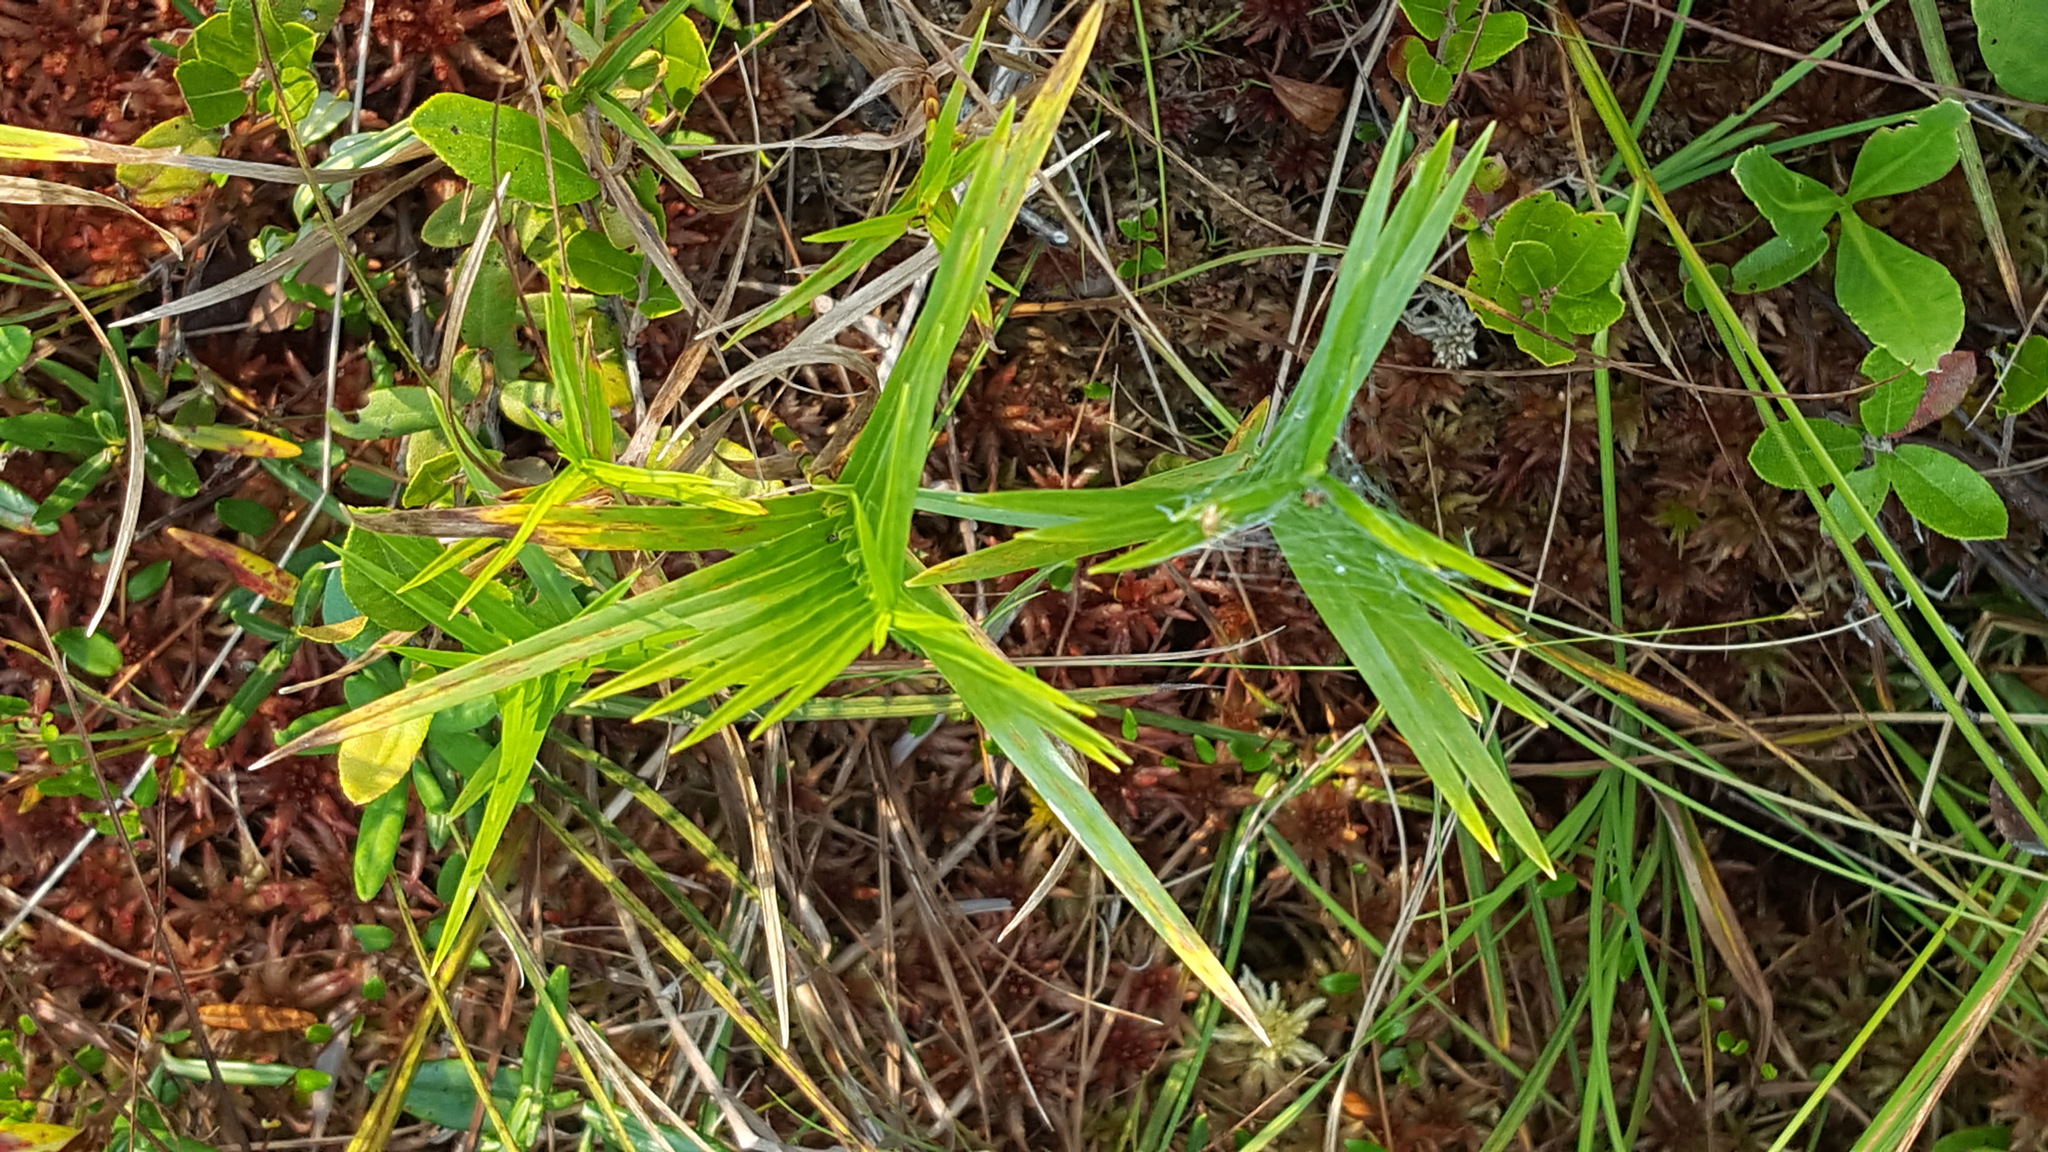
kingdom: Plantae
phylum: Tracheophyta
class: Liliopsida
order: Poales
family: Cyperaceae
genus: Dulichium
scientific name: Dulichium arundinaceum
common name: Three-way sedge
